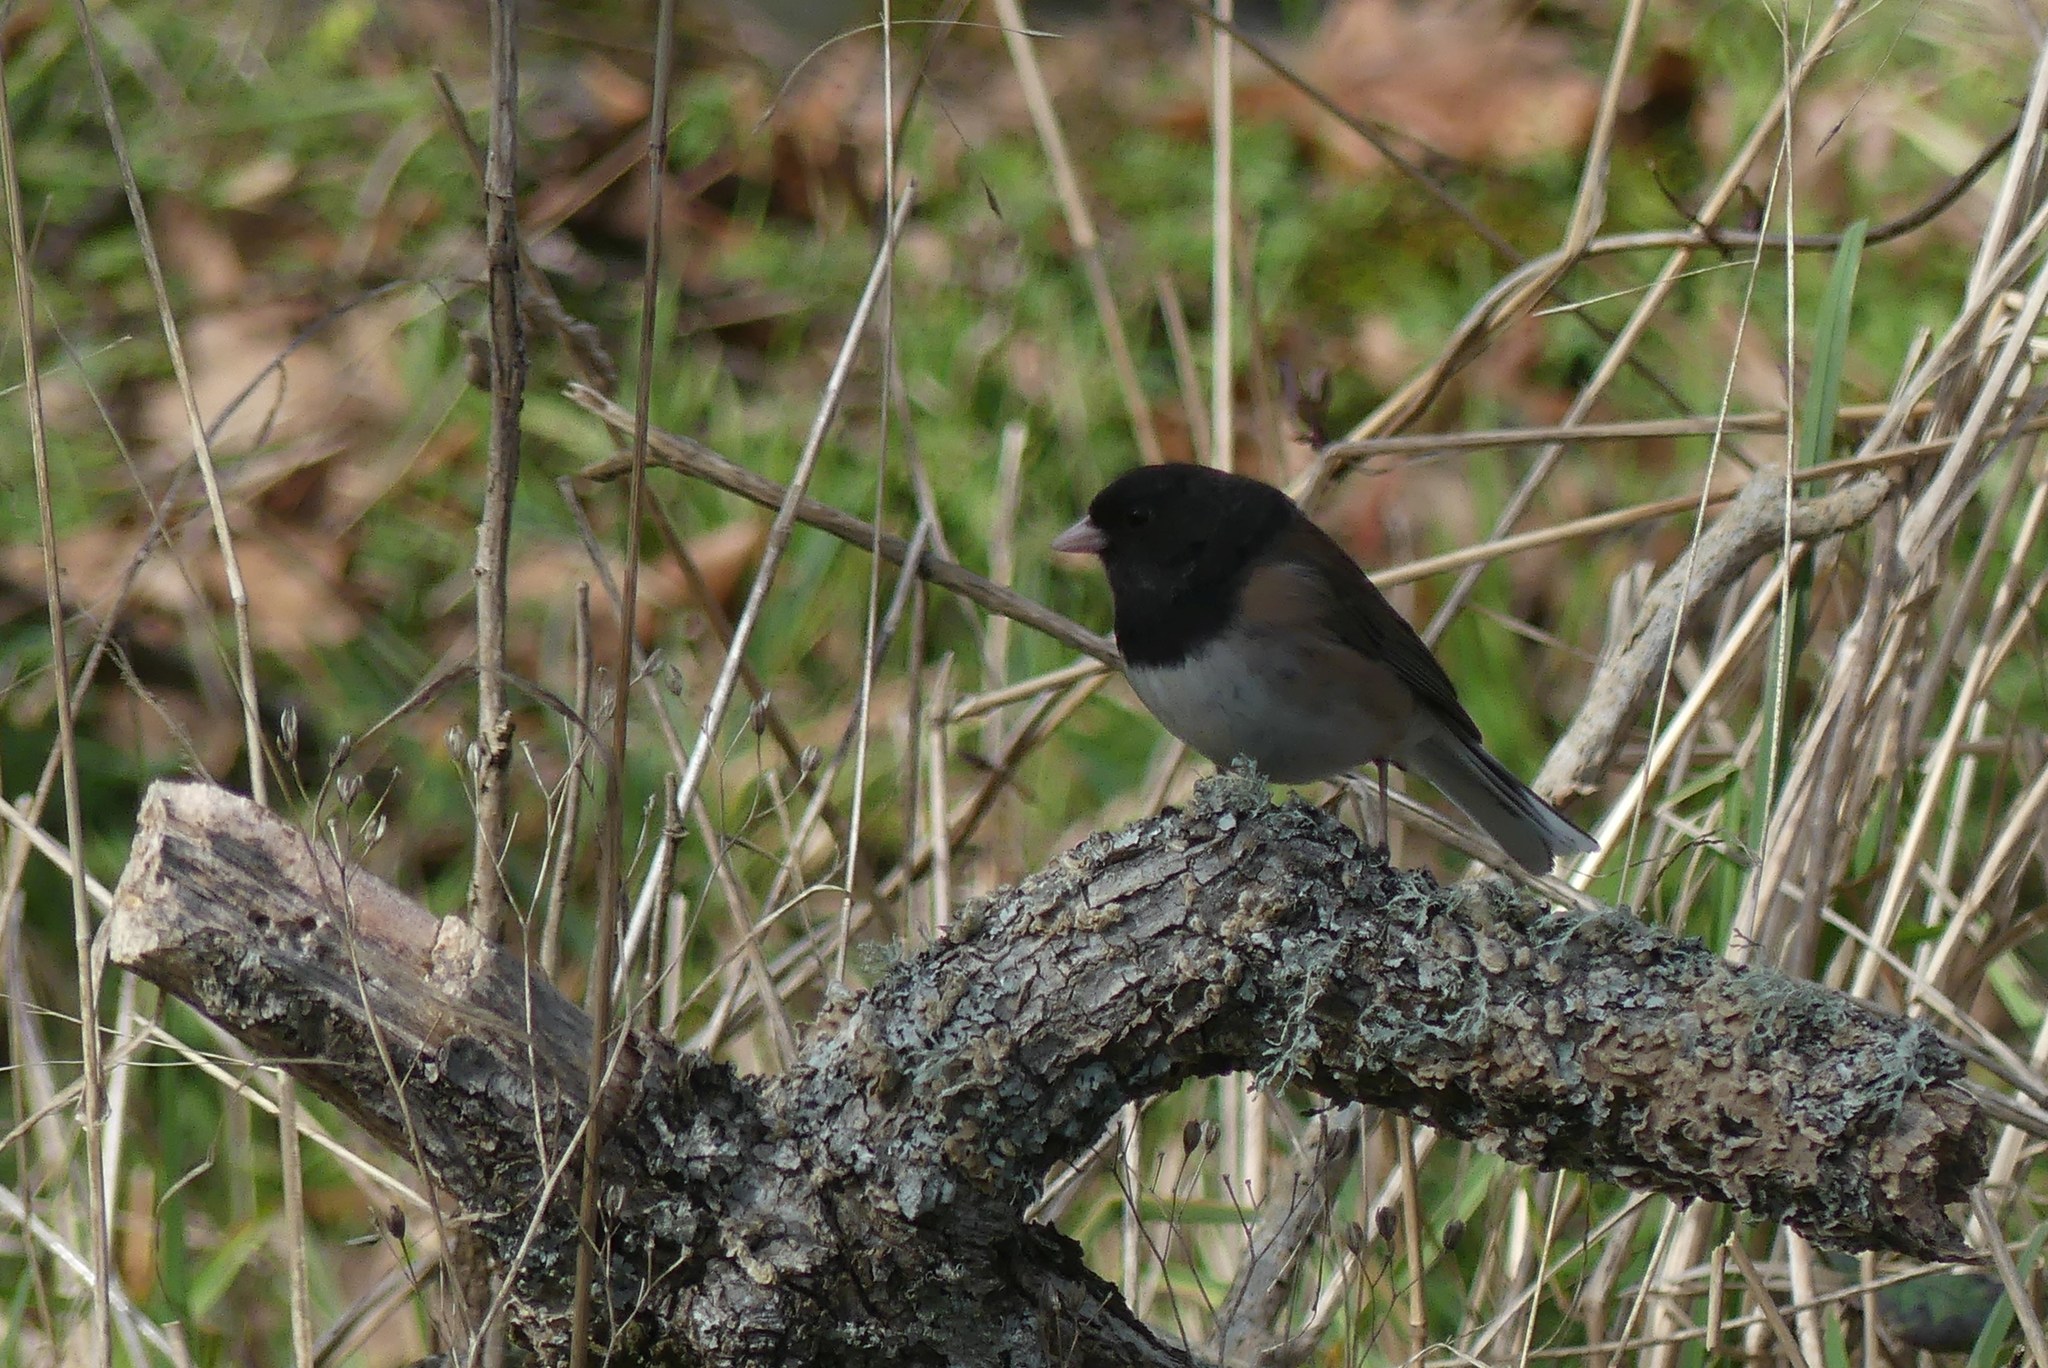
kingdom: Animalia
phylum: Chordata
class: Aves
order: Passeriformes
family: Passerellidae
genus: Junco
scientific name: Junco hyemalis
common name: Dark-eyed junco
